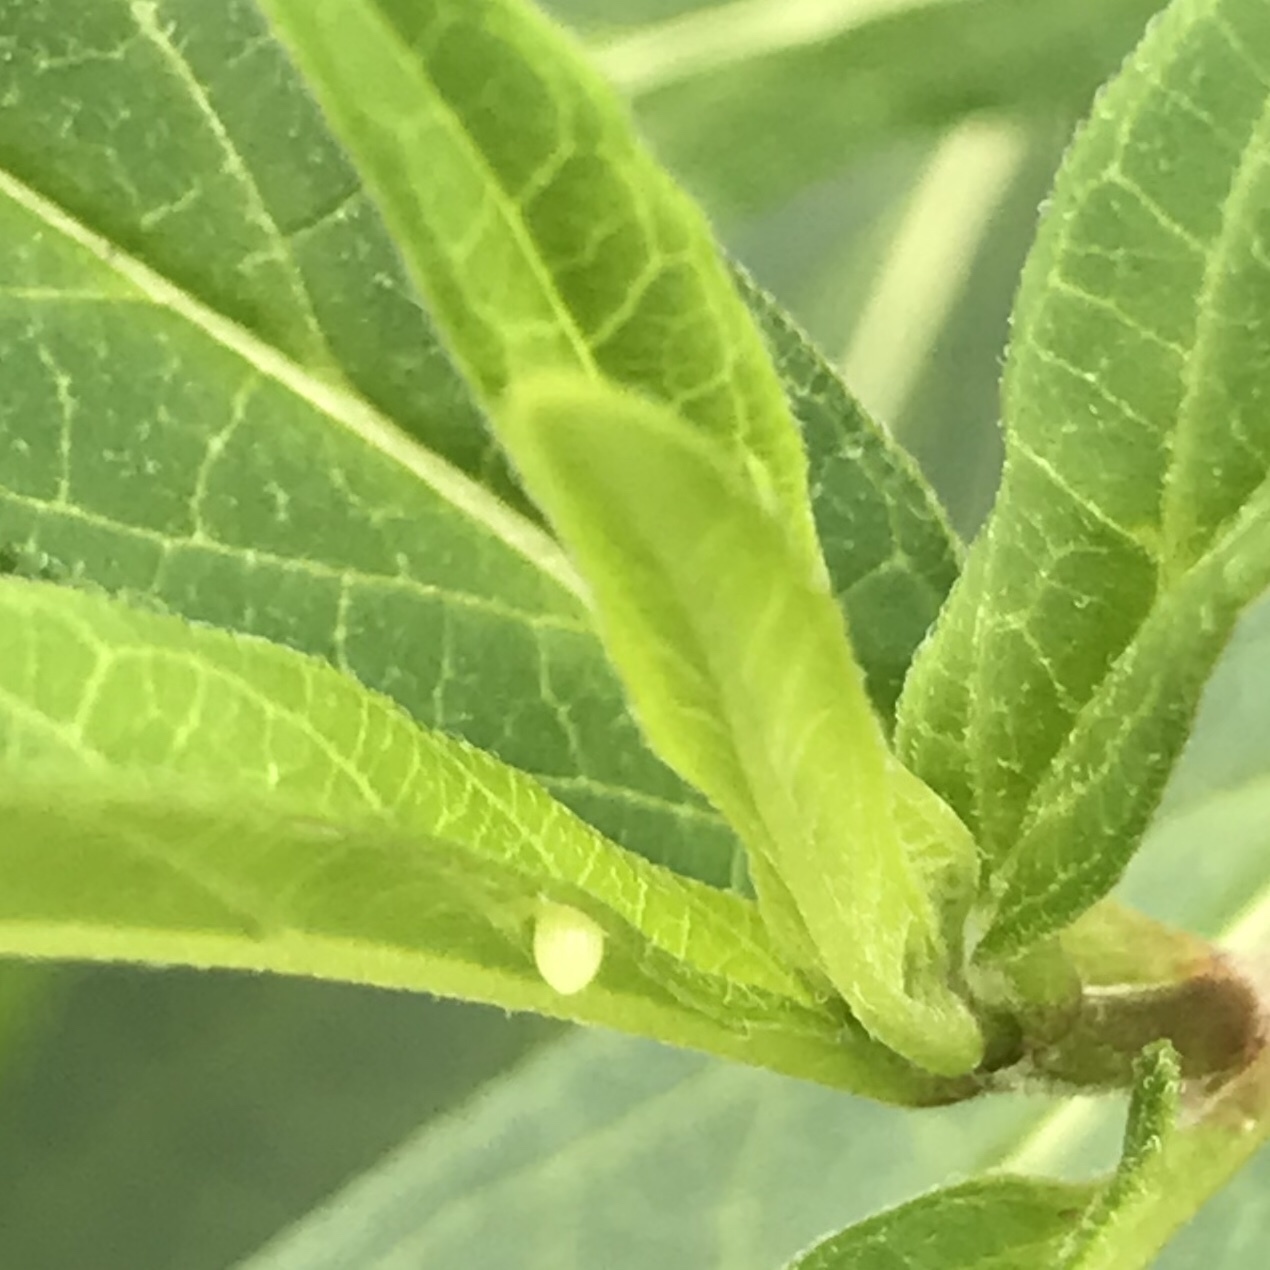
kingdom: Animalia
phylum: Arthropoda
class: Insecta
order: Lepidoptera
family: Nymphalidae
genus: Danaus
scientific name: Danaus plexippus
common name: Monarch
